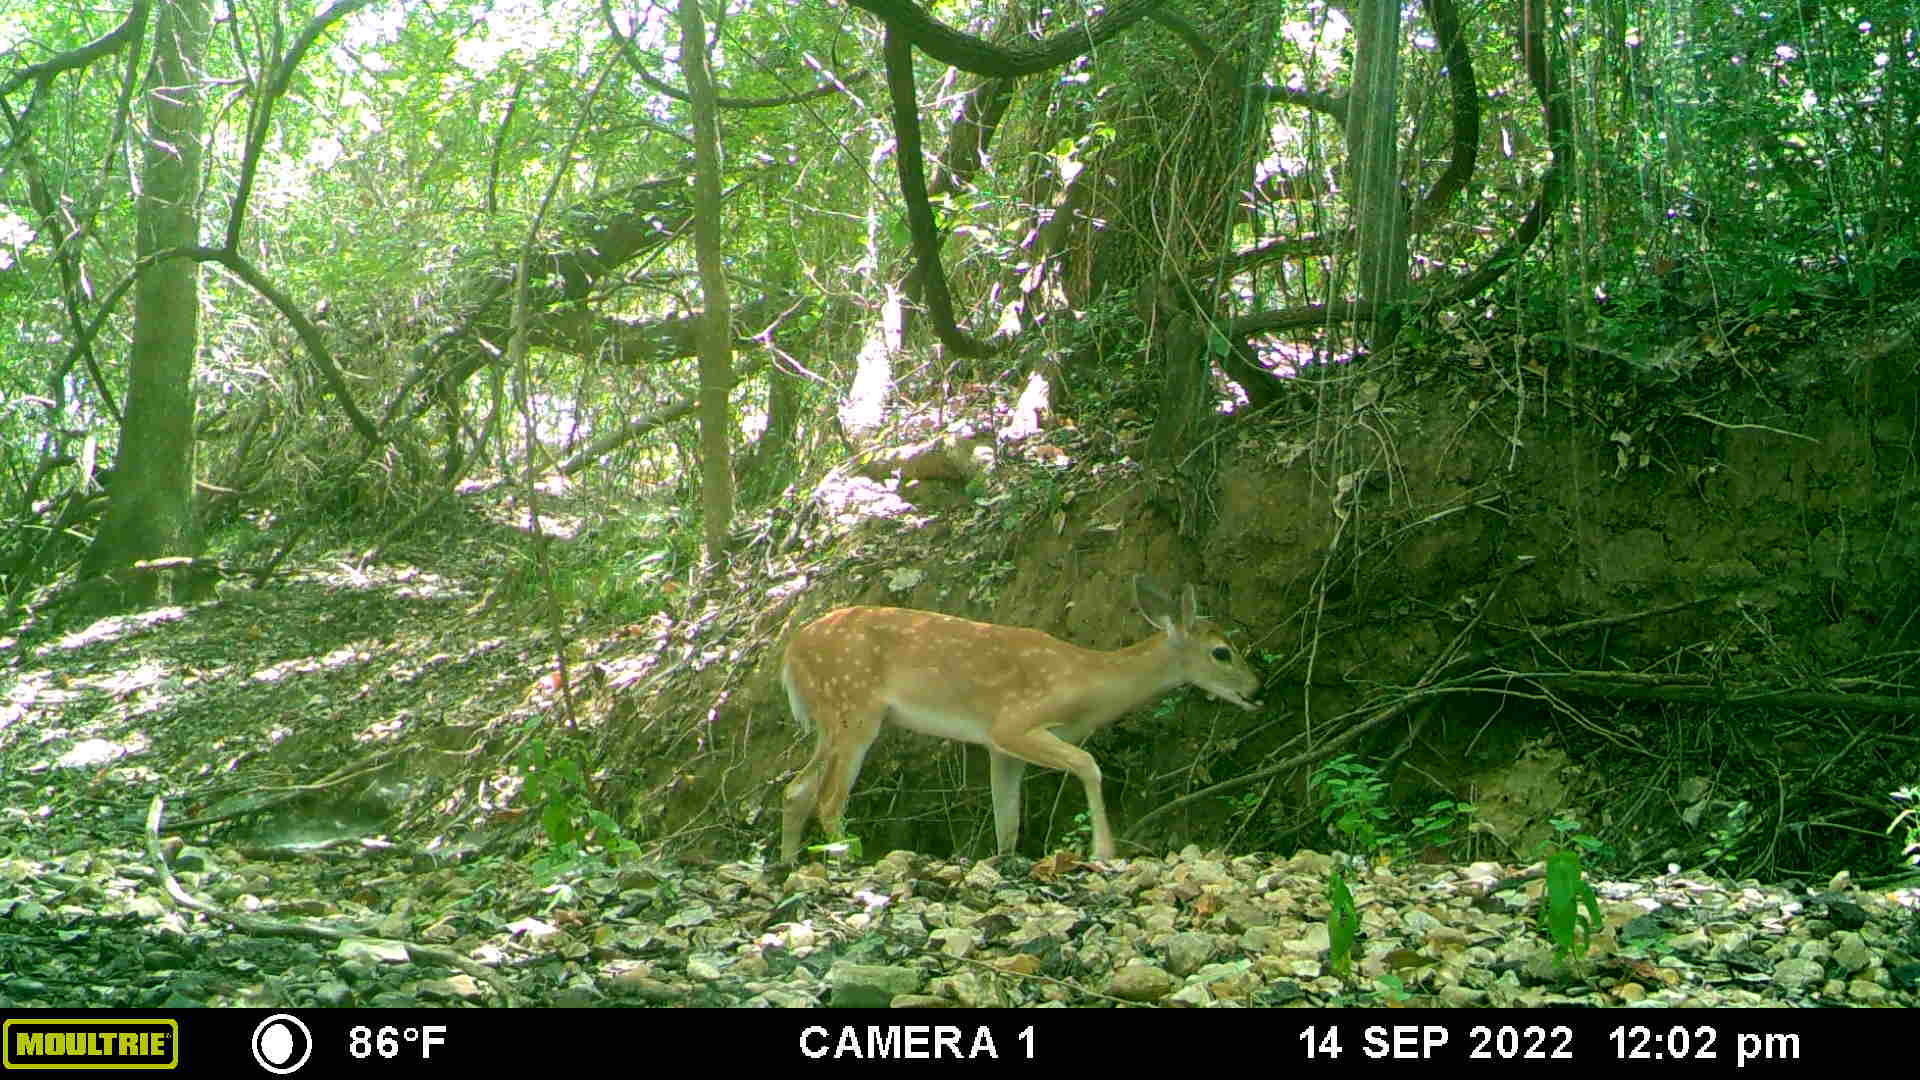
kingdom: Animalia
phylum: Chordata
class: Mammalia
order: Artiodactyla
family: Cervidae
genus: Odocoileus
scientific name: Odocoileus virginianus
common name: White-tailed deer
